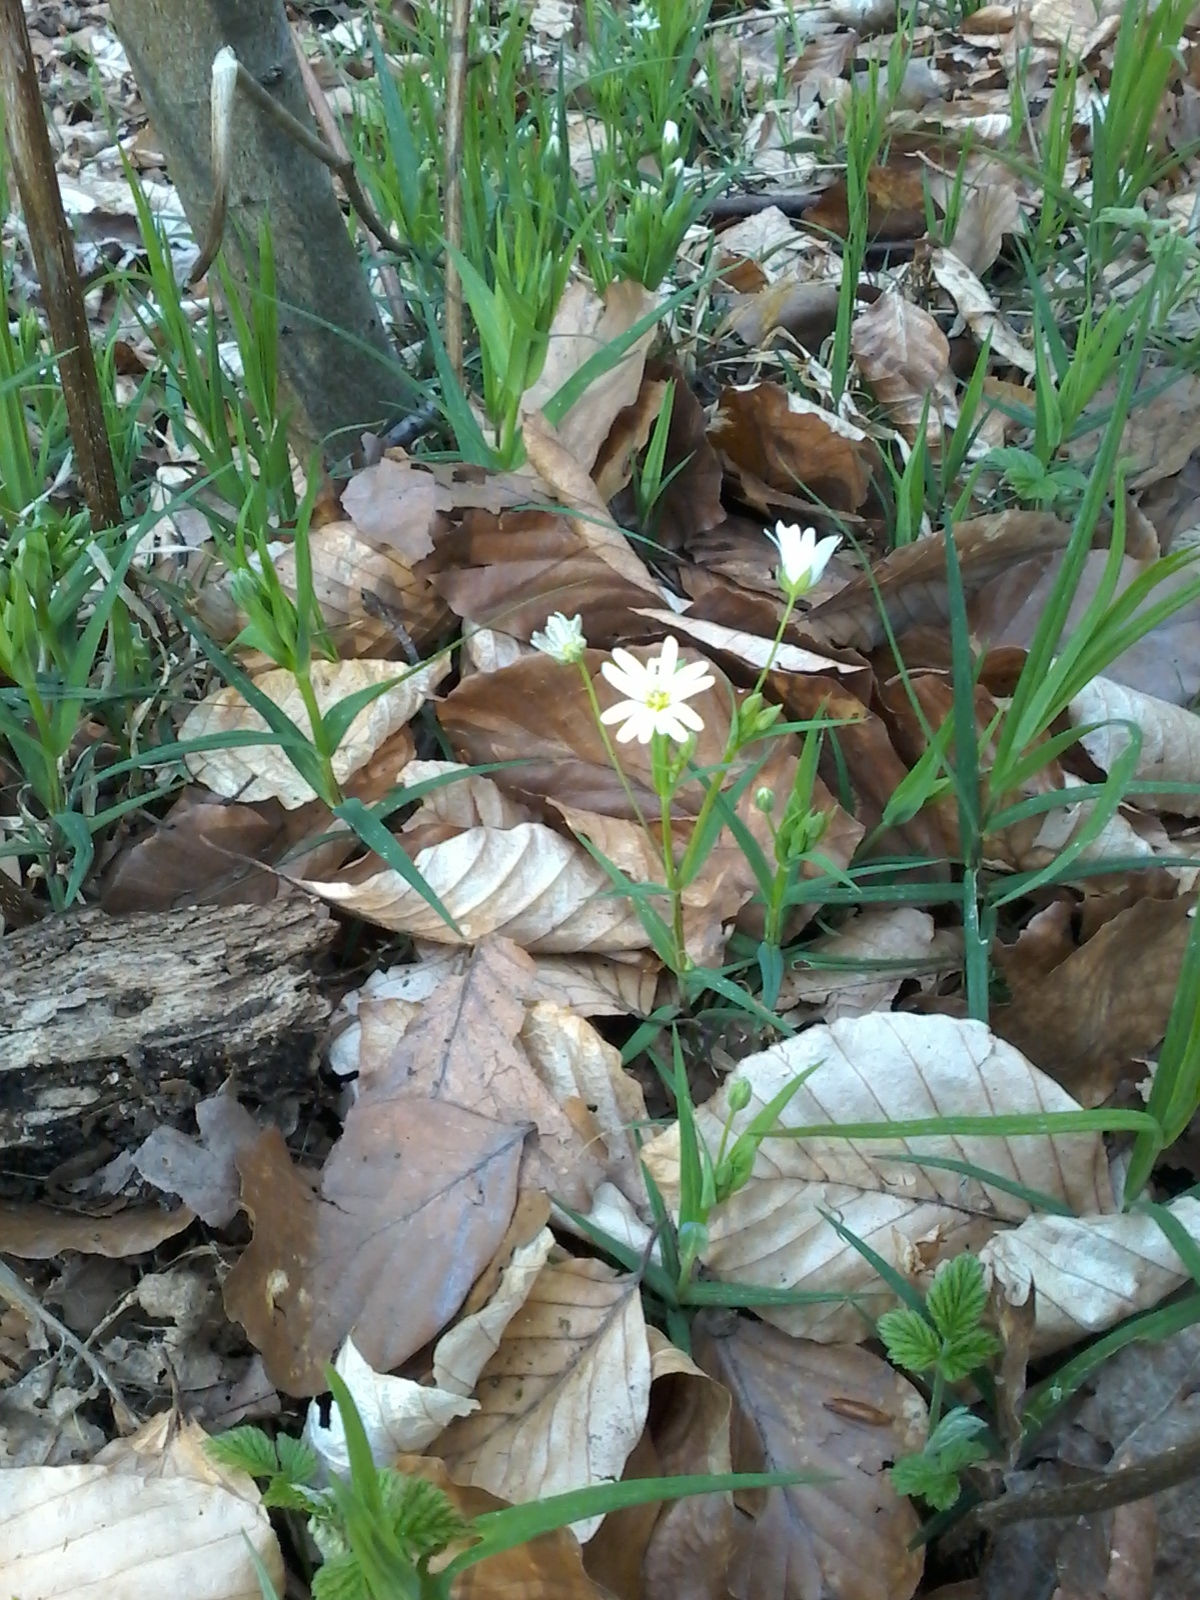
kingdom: Plantae
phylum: Tracheophyta
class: Magnoliopsida
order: Caryophyllales
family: Caryophyllaceae
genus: Rabelera
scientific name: Rabelera holostea
